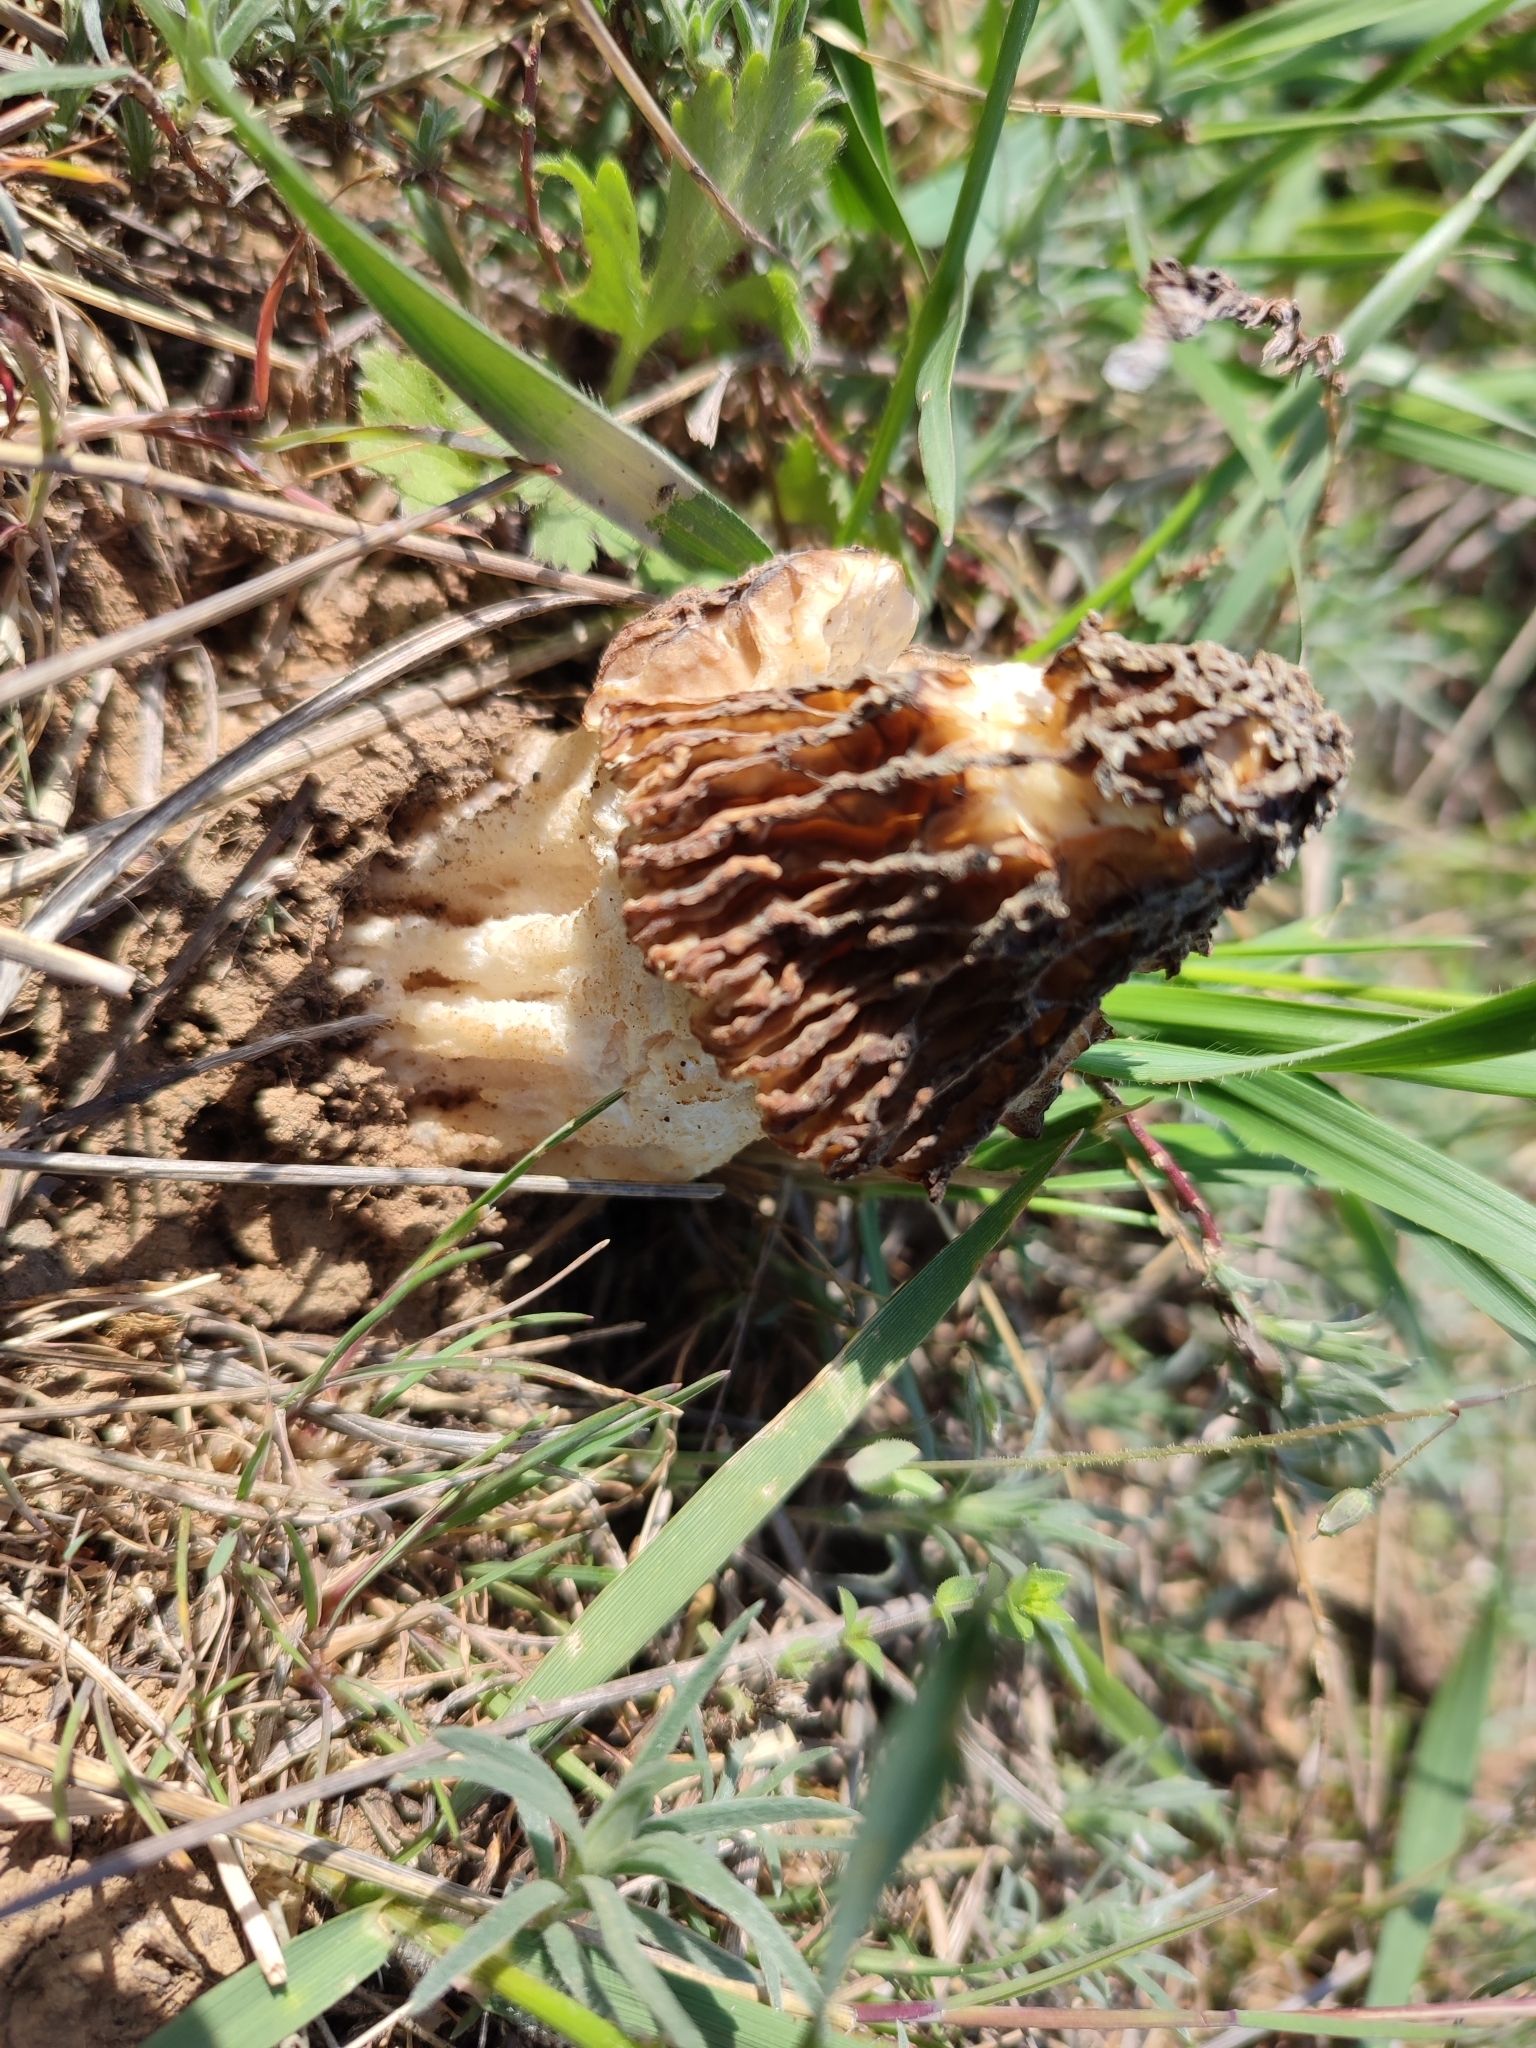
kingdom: Fungi
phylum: Ascomycota
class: Pezizomycetes
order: Pezizales
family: Morchellaceae
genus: Morchella
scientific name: Morchella steppicola
